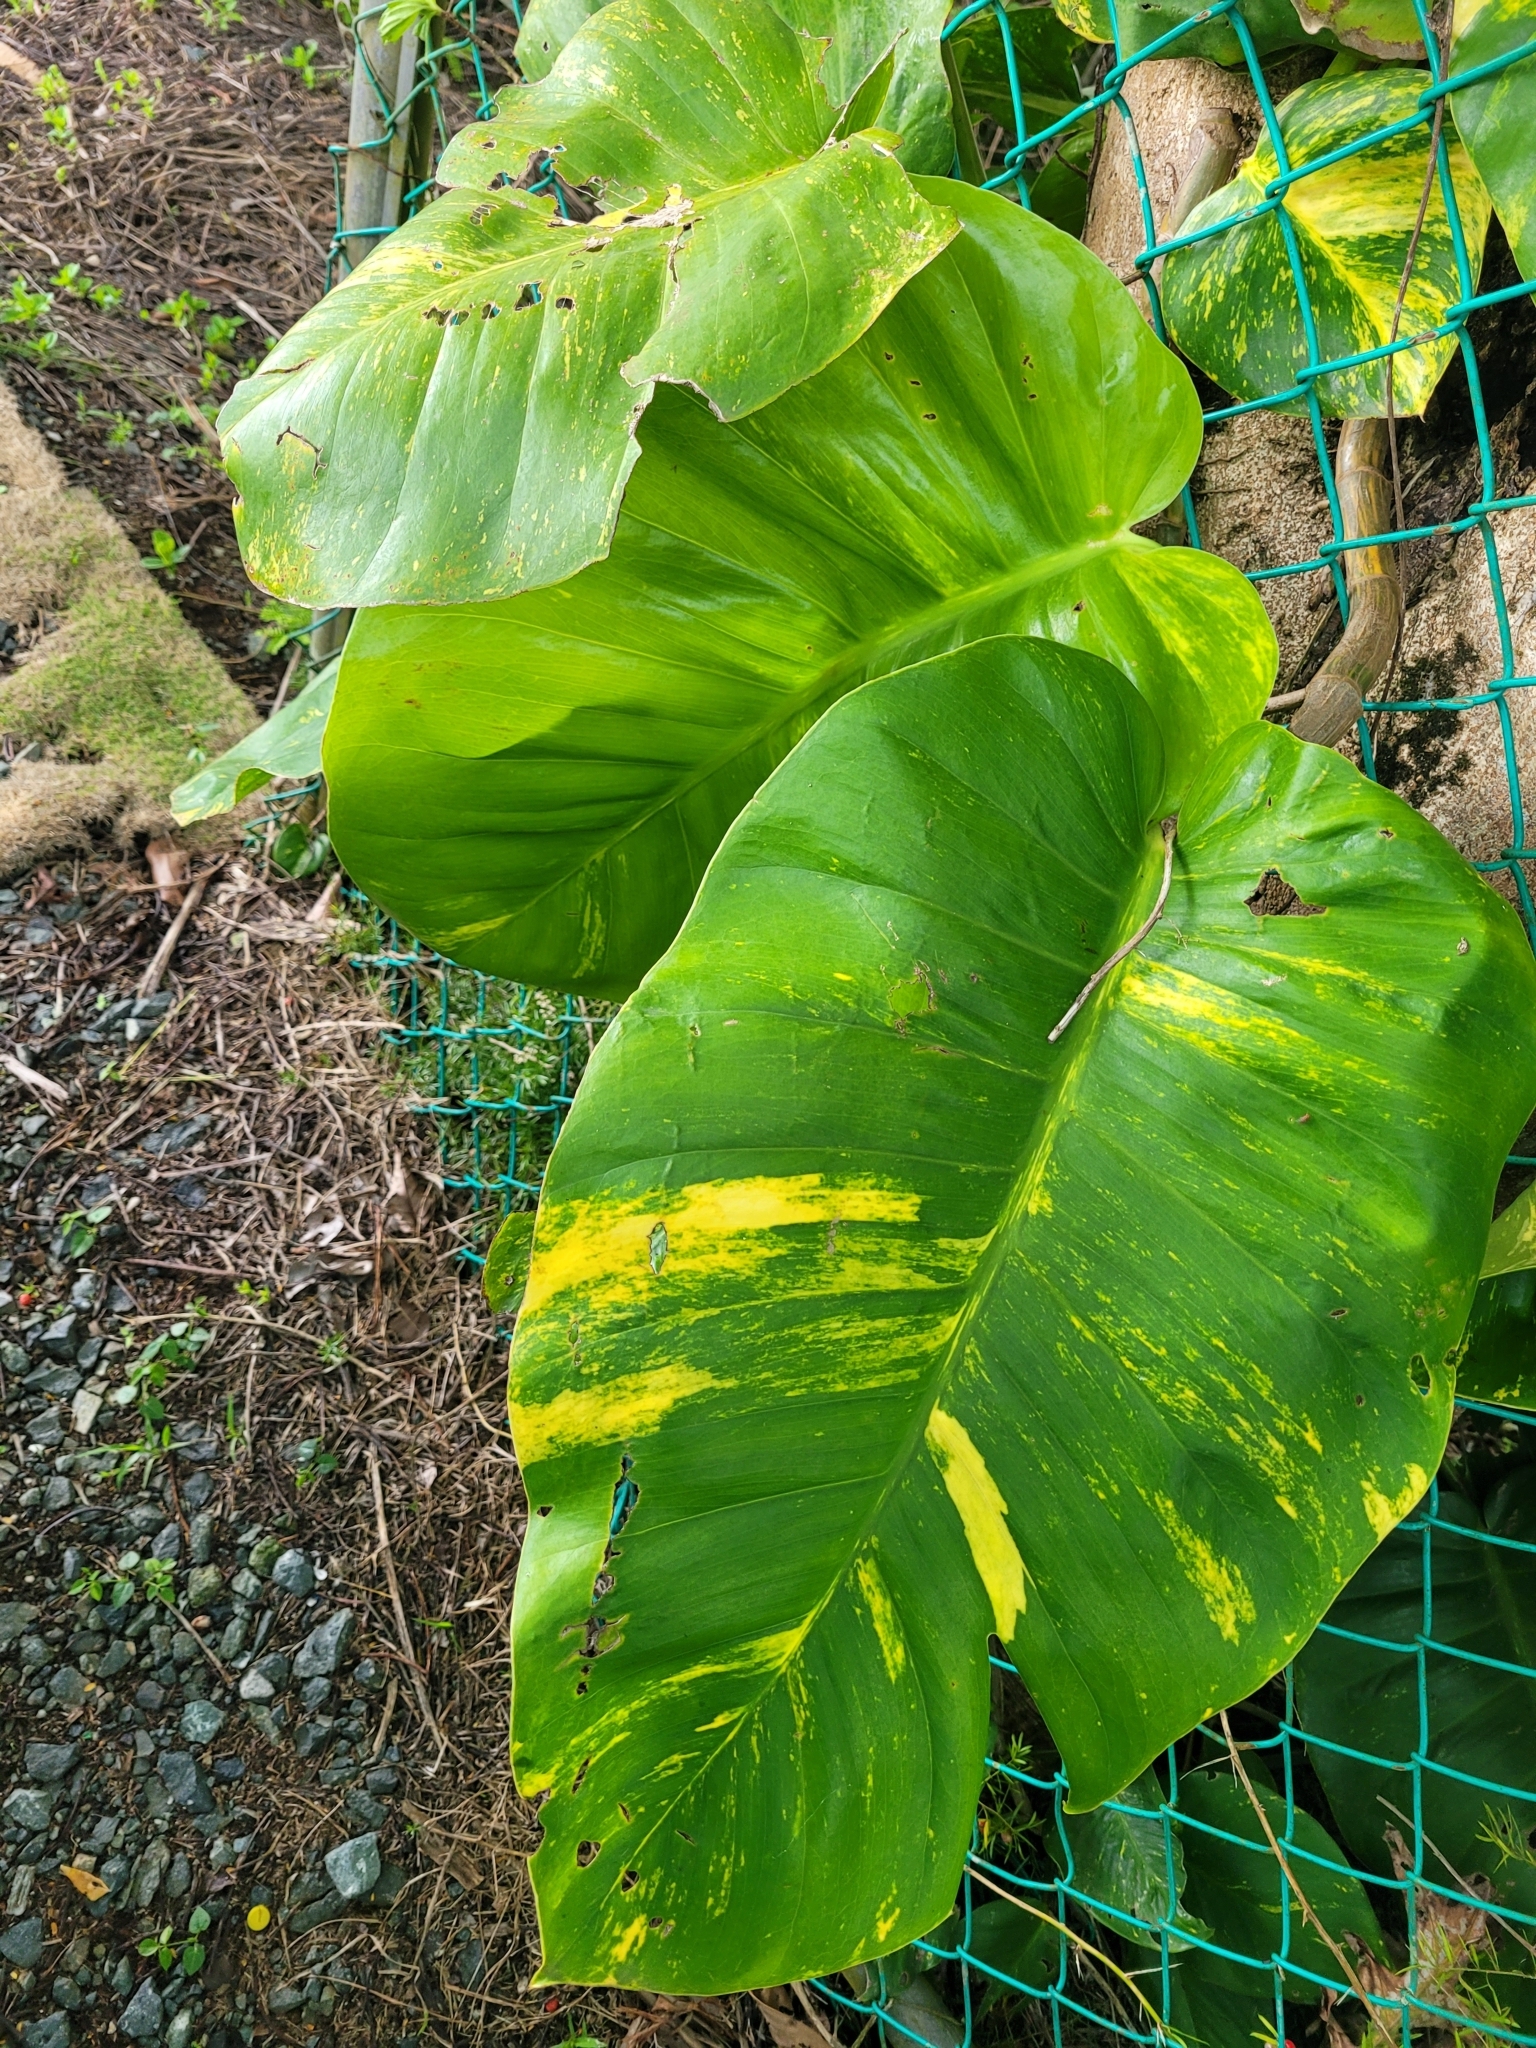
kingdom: Plantae
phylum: Tracheophyta
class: Liliopsida
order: Alismatales
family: Araceae
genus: Epipremnum
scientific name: Epipremnum aureum
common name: Golden hunter's-robe
